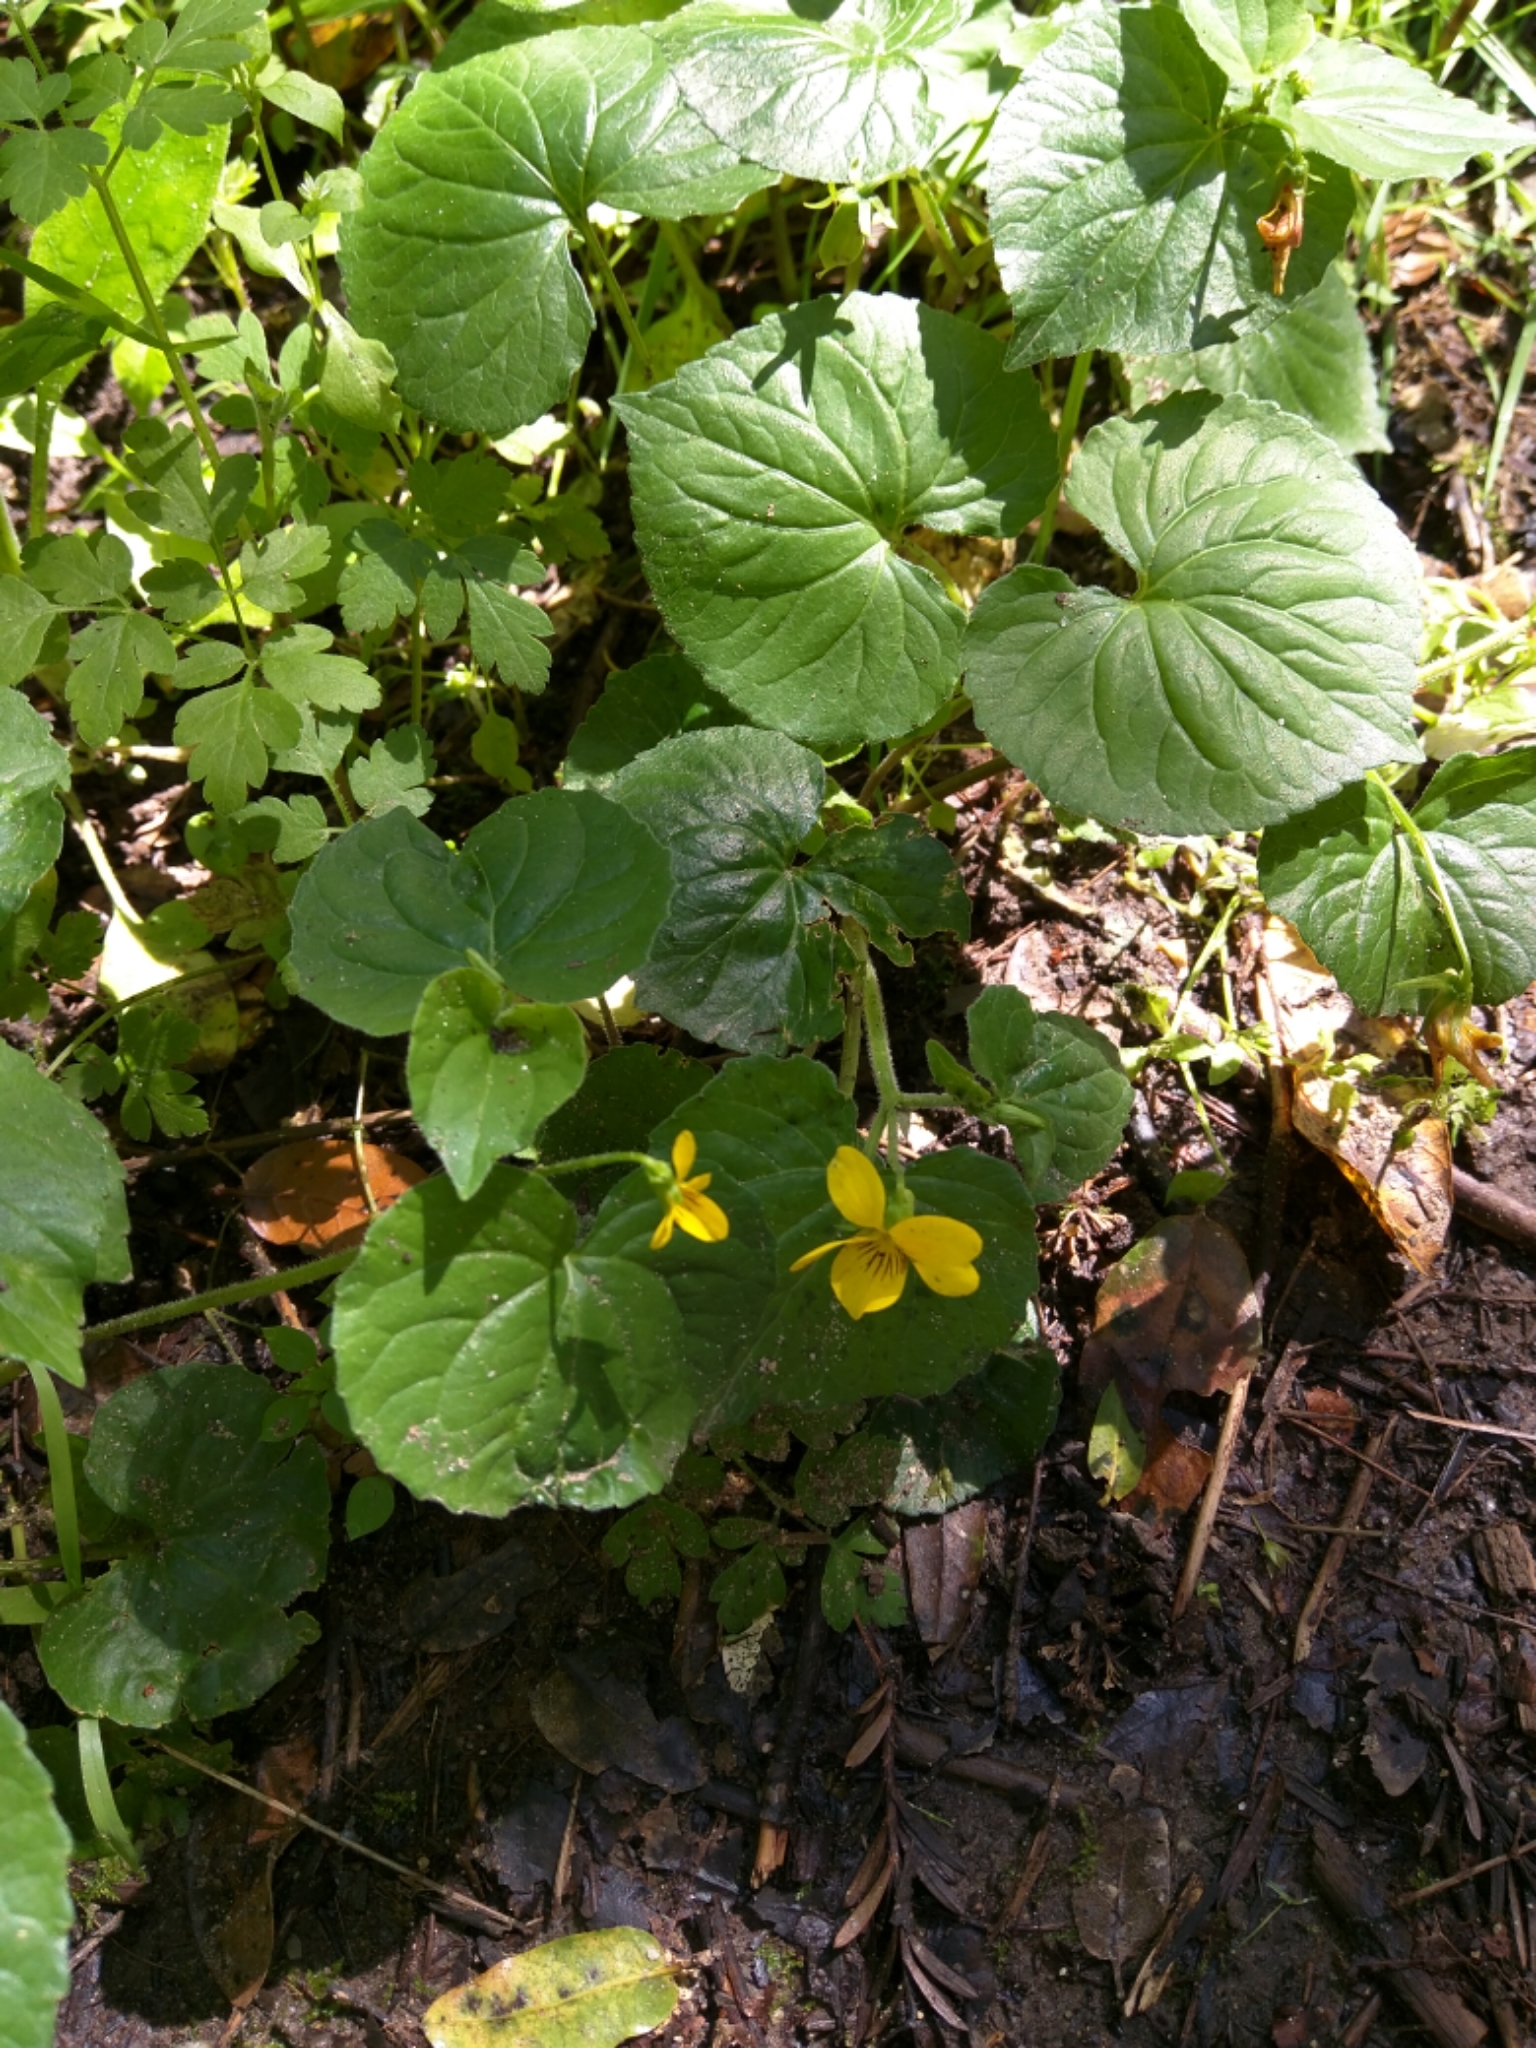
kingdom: Plantae
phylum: Tracheophyta
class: Magnoliopsida
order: Malpighiales
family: Violaceae
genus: Viola
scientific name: Viola glabella
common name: Stream violet
